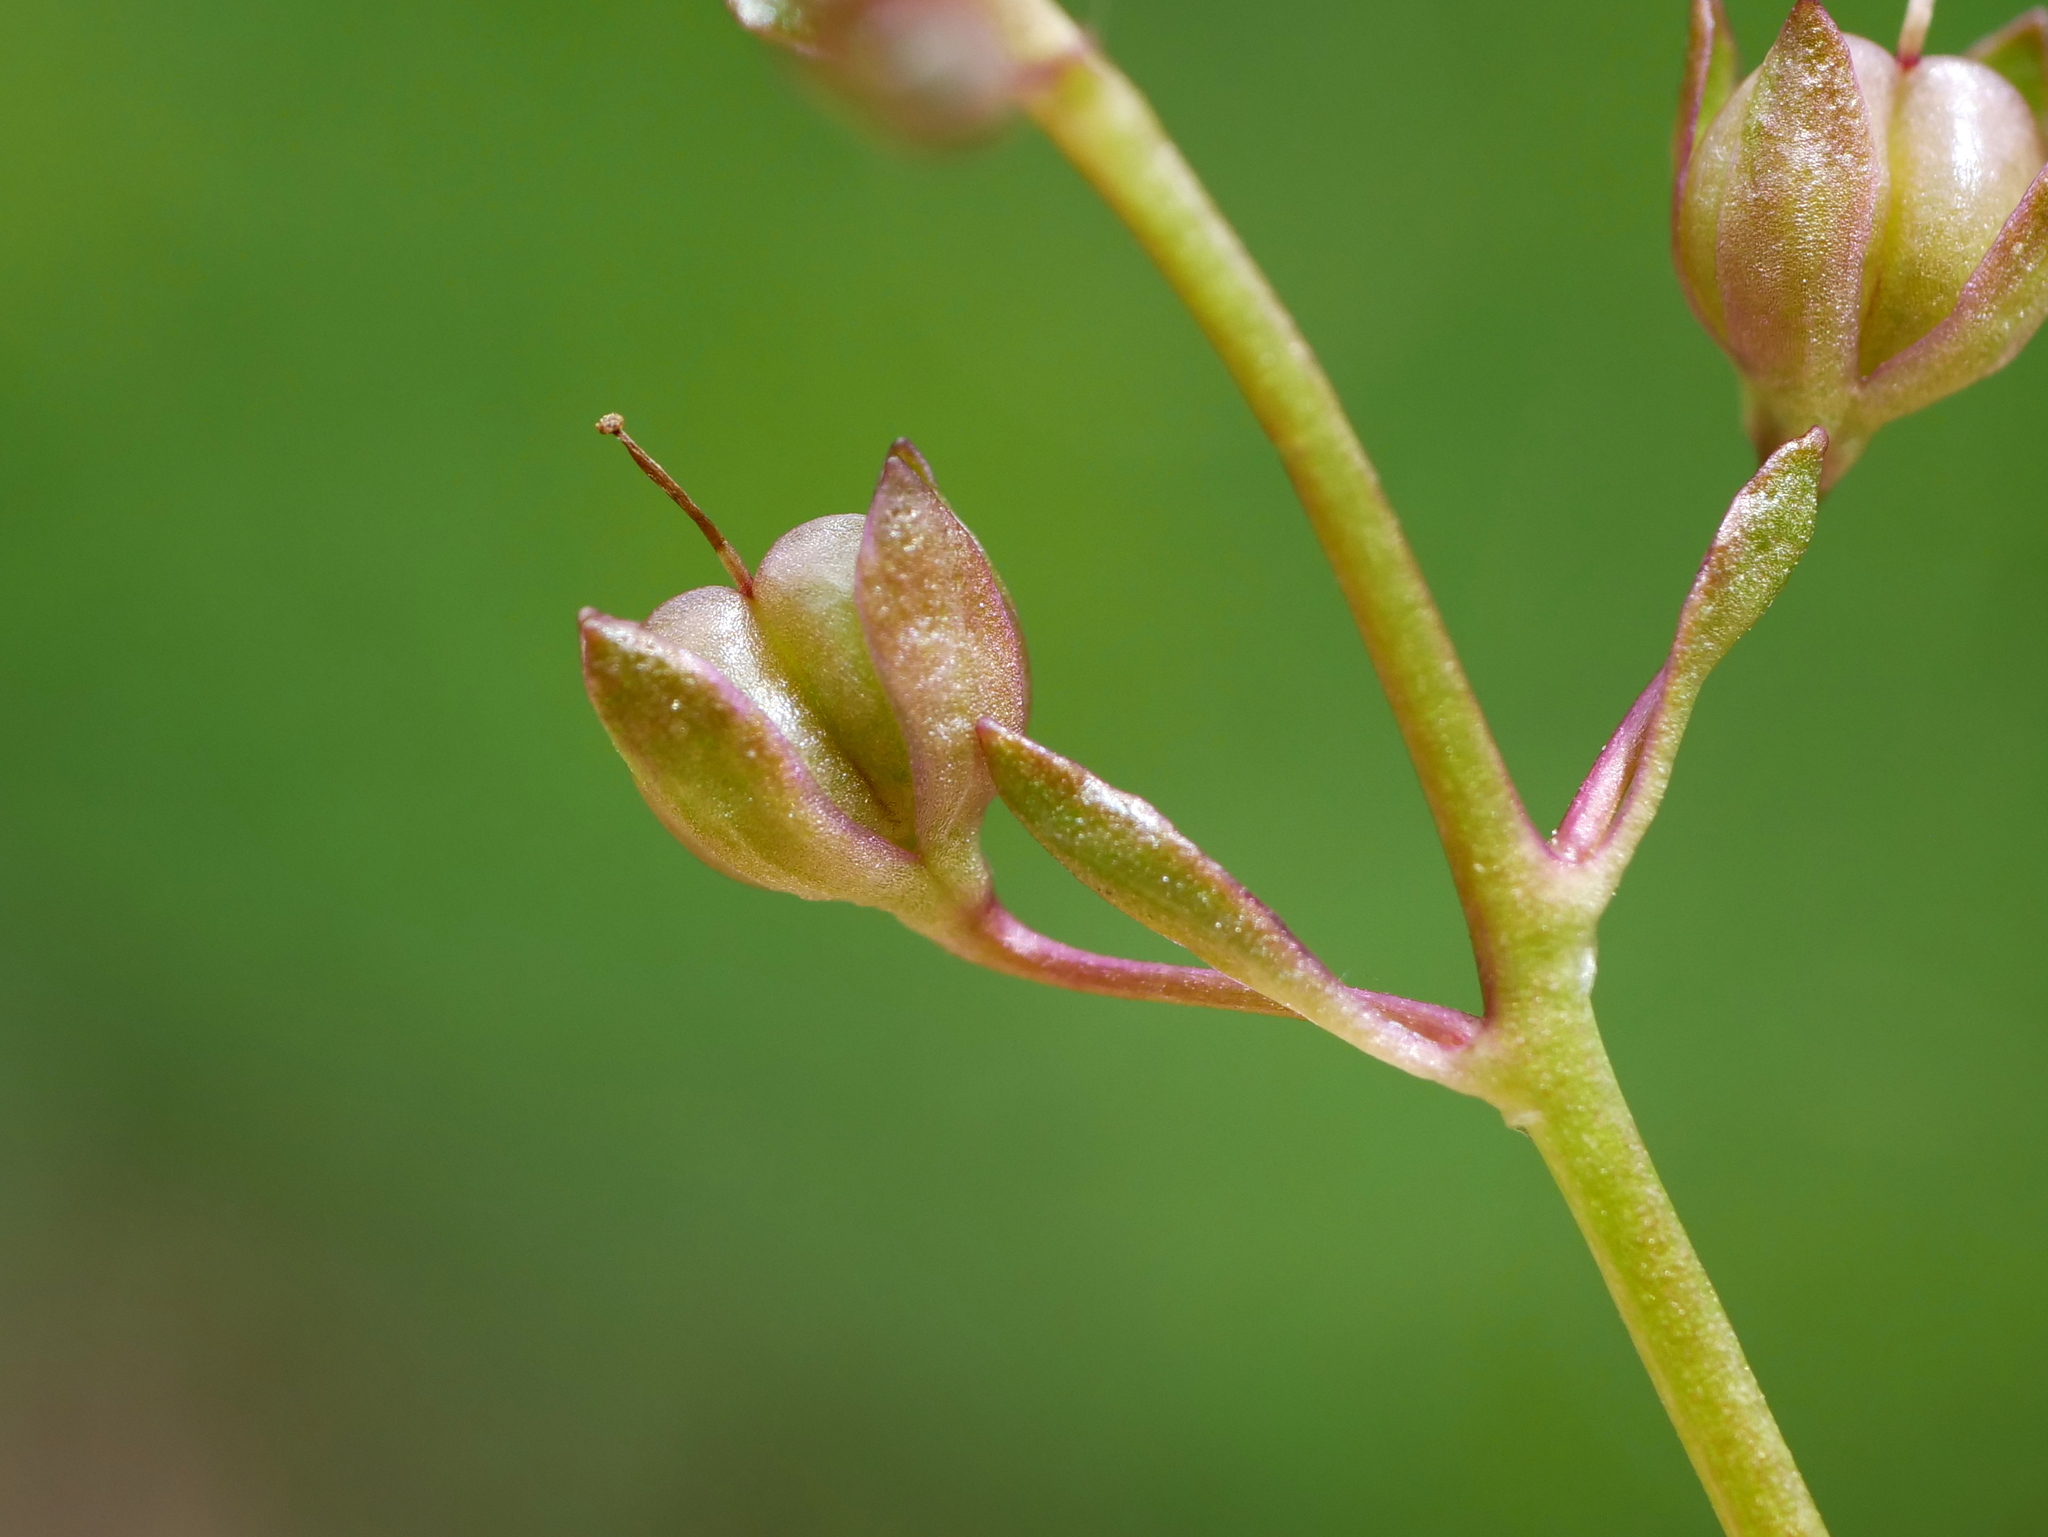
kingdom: Plantae
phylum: Tracheophyta
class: Magnoliopsida
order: Lamiales
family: Plantaginaceae
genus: Veronica
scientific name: Veronica beccabunga
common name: Brooklime
